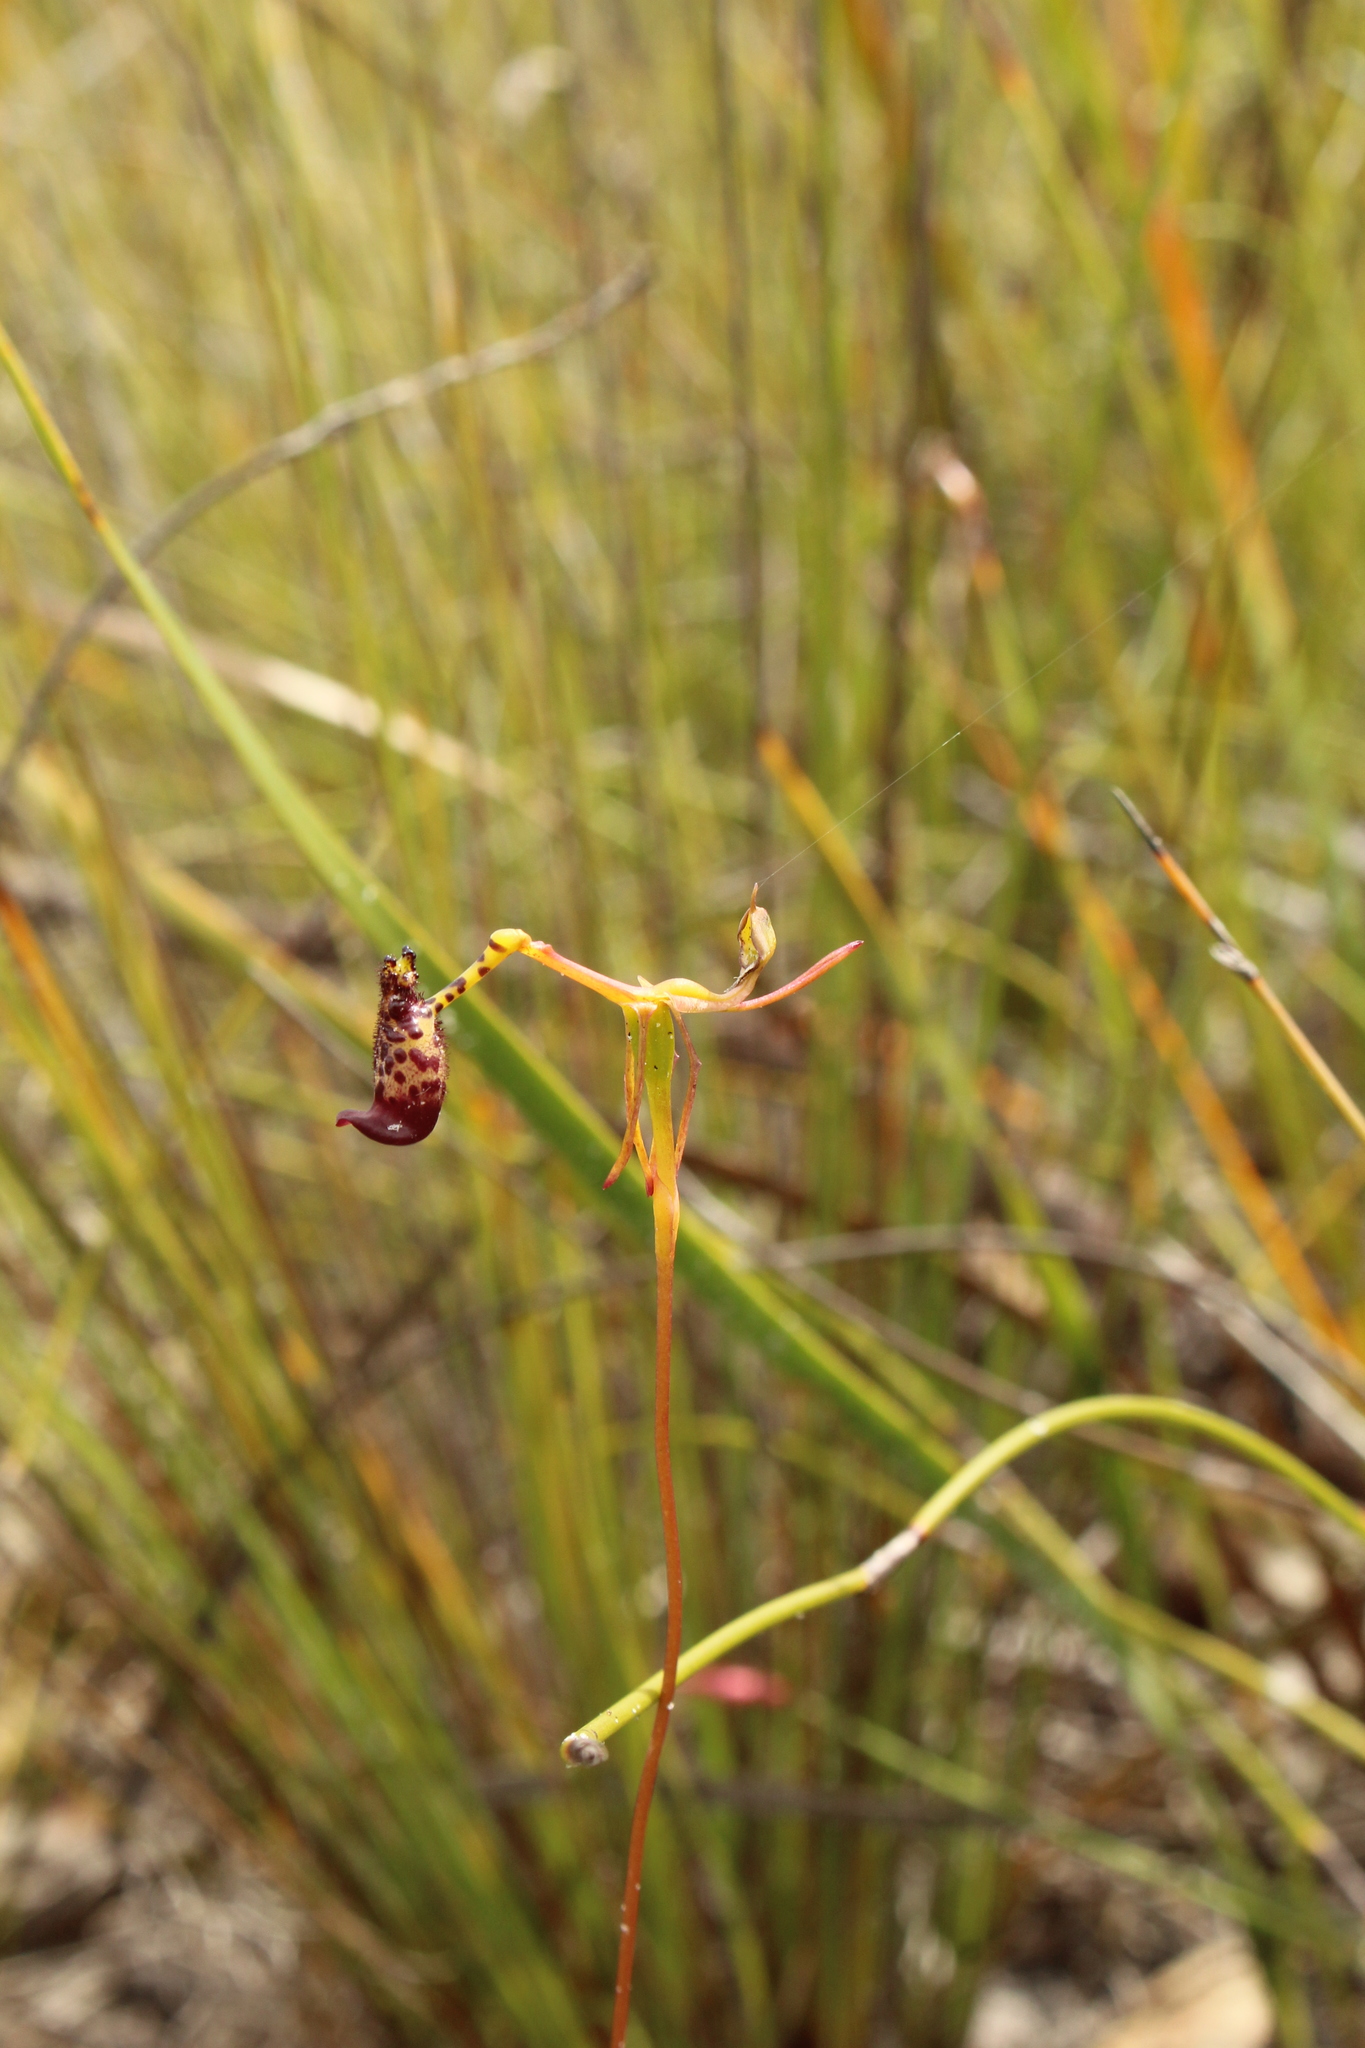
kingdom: Plantae
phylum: Tracheophyta
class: Liliopsida
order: Asparagales
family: Orchidaceae
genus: Drakaea
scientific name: Drakaea livida
